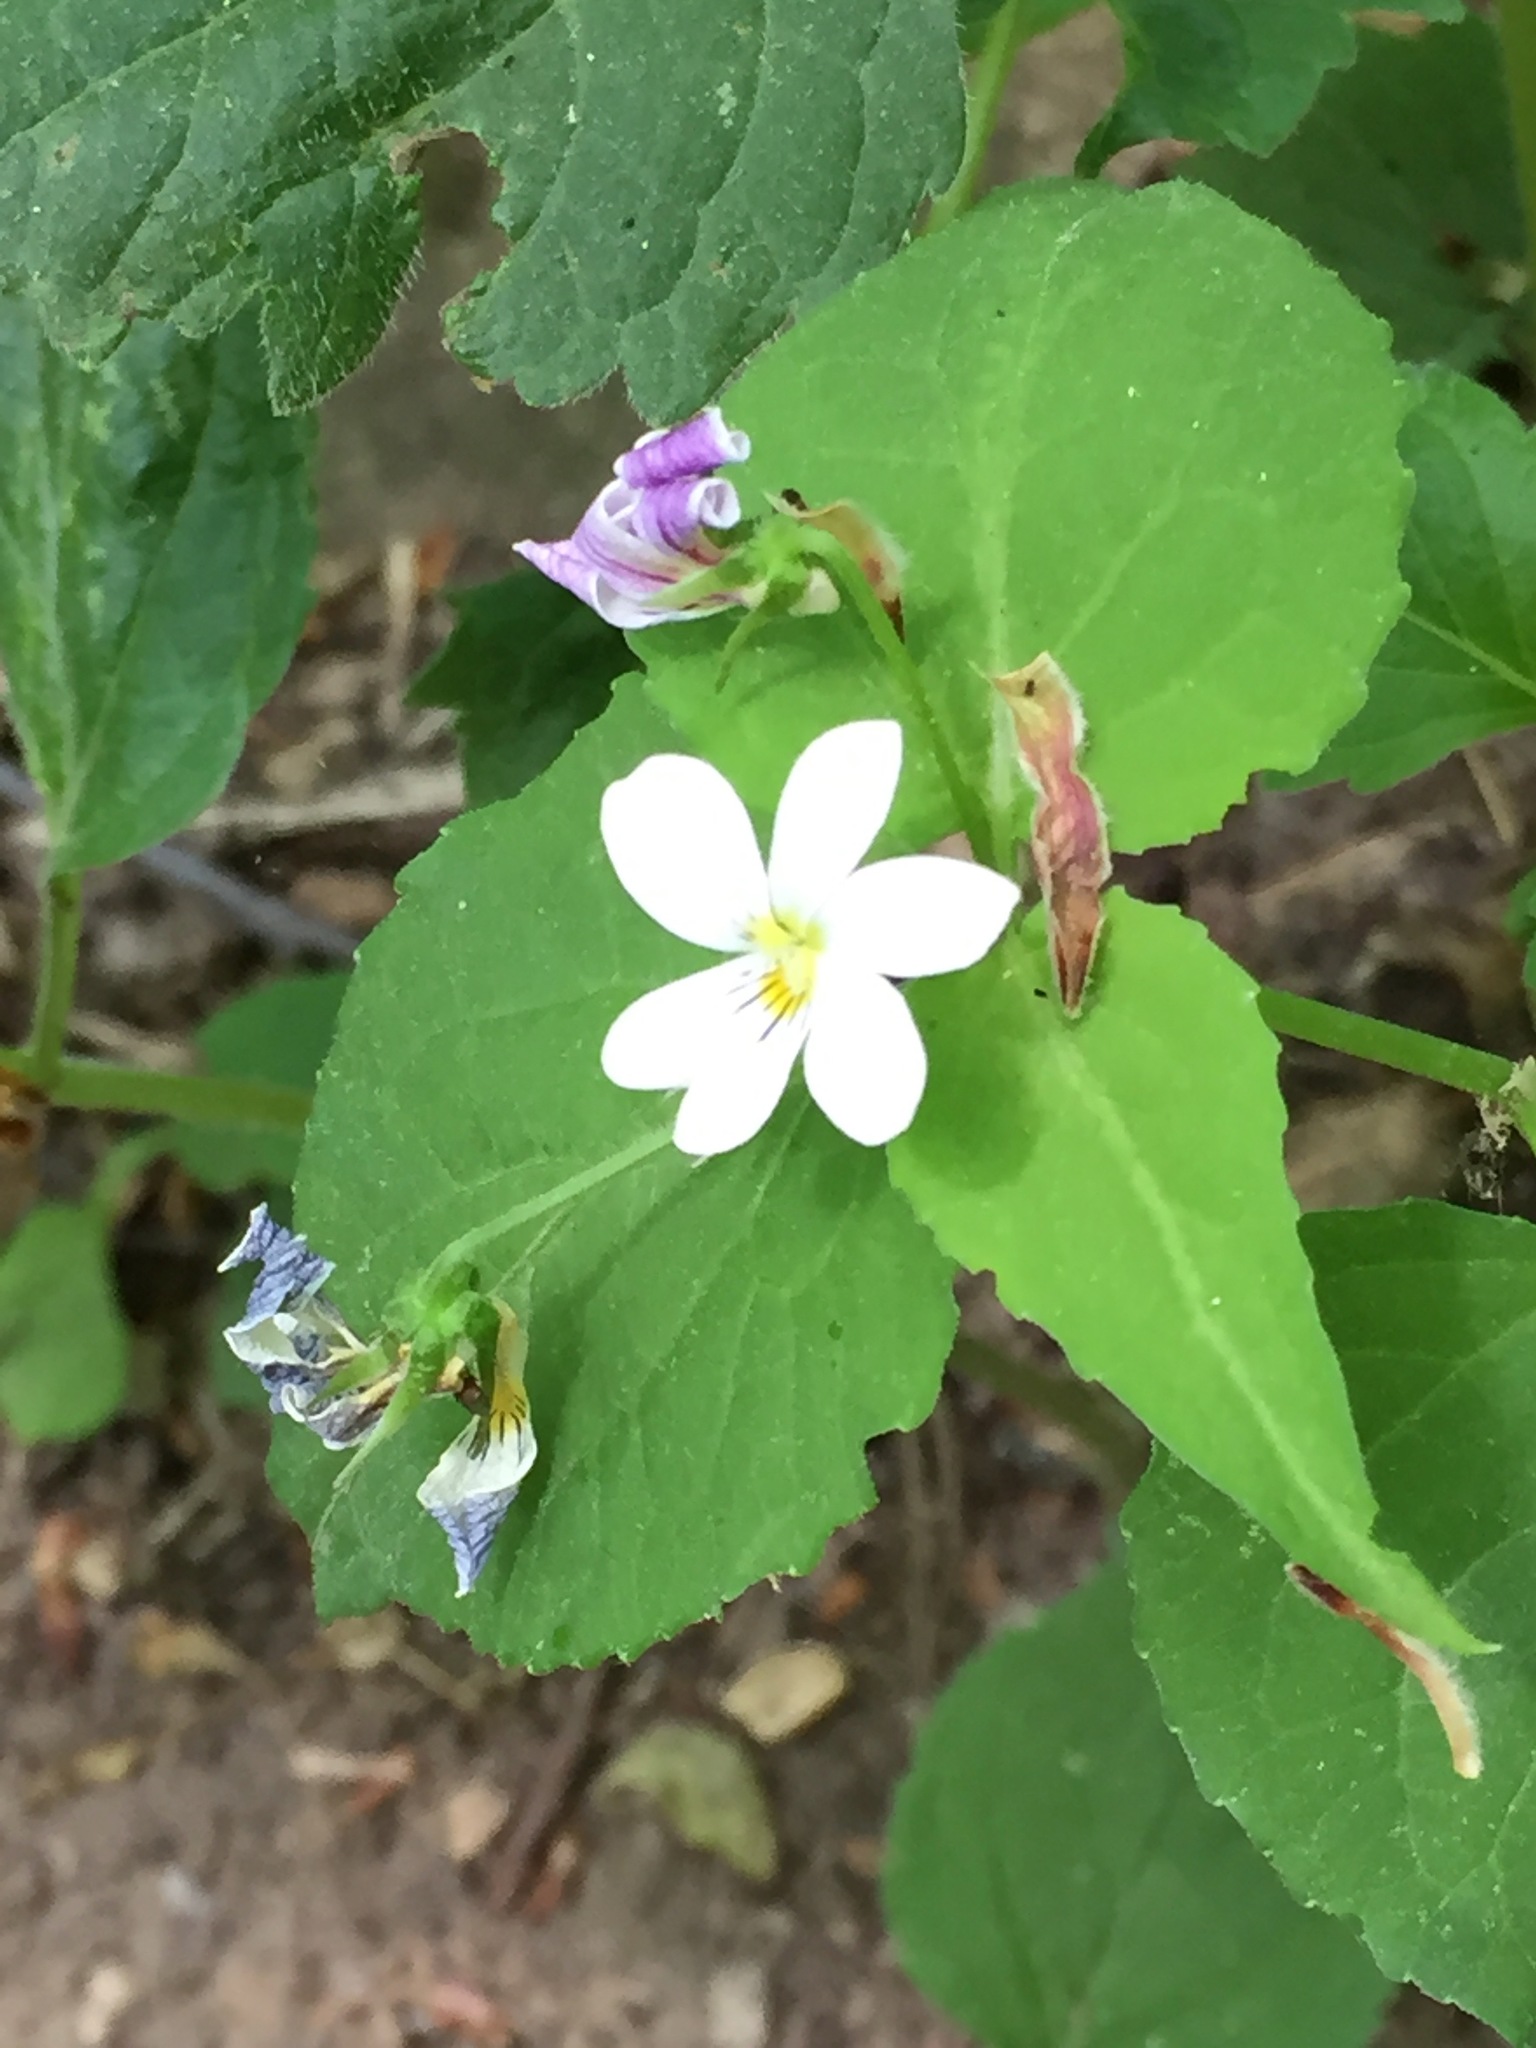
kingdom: Plantae
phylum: Tracheophyta
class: Magnoliopsida
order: Malpighiales
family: Violaceae
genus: Viola
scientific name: Viola canadensis
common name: Canada violet
